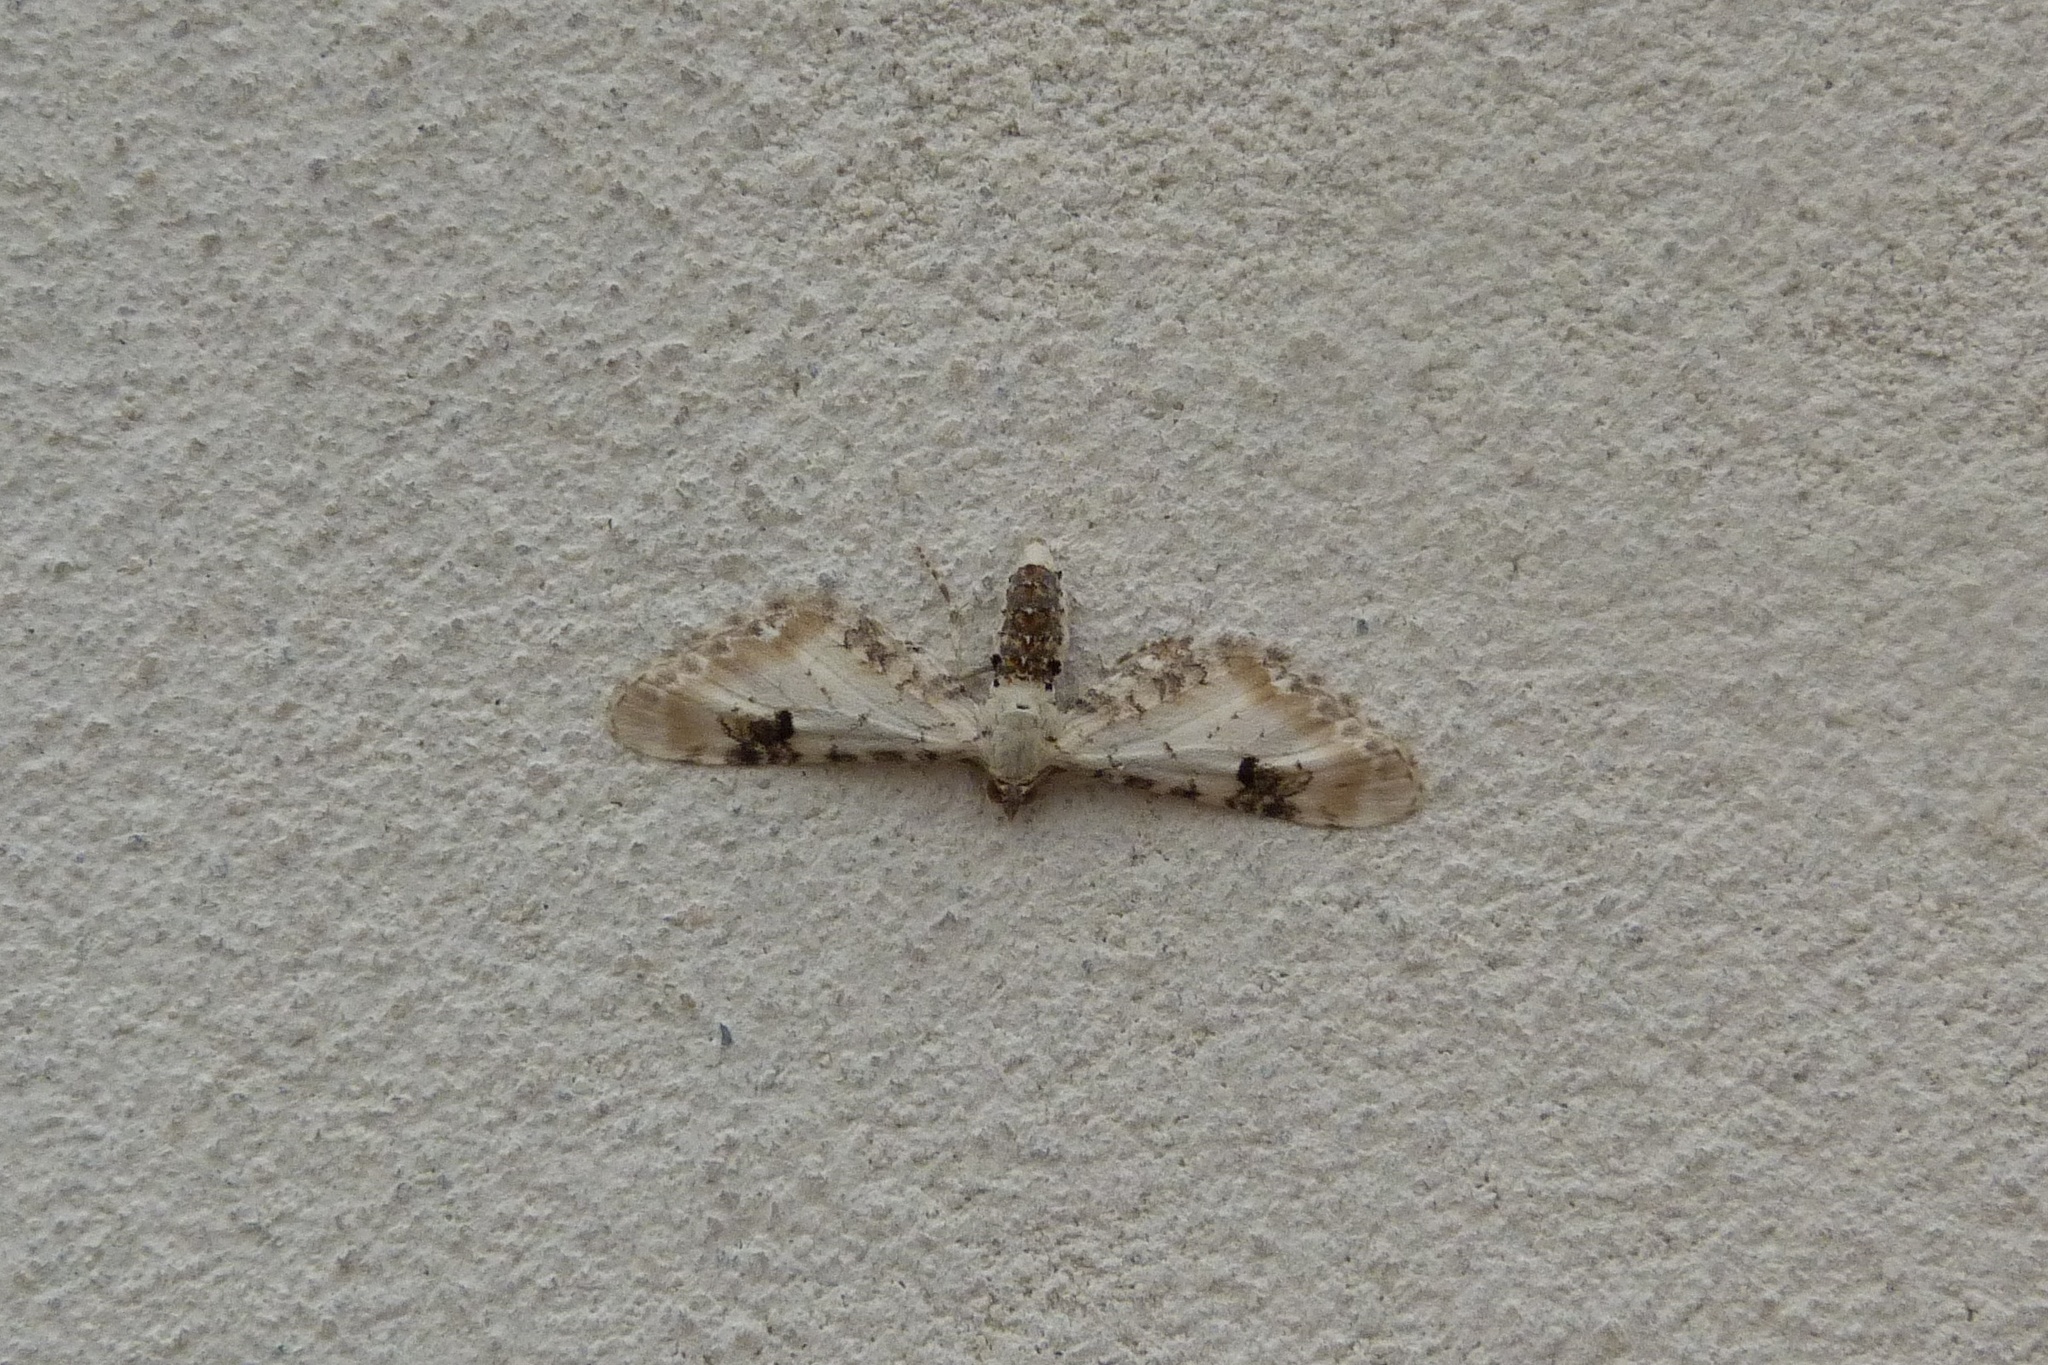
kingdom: Animalia
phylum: Arthropoda
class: Insecta
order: Lepidoptera
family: Geometridae
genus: Eupithecia
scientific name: Eupithecia centaureata
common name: Lime-speck pug
